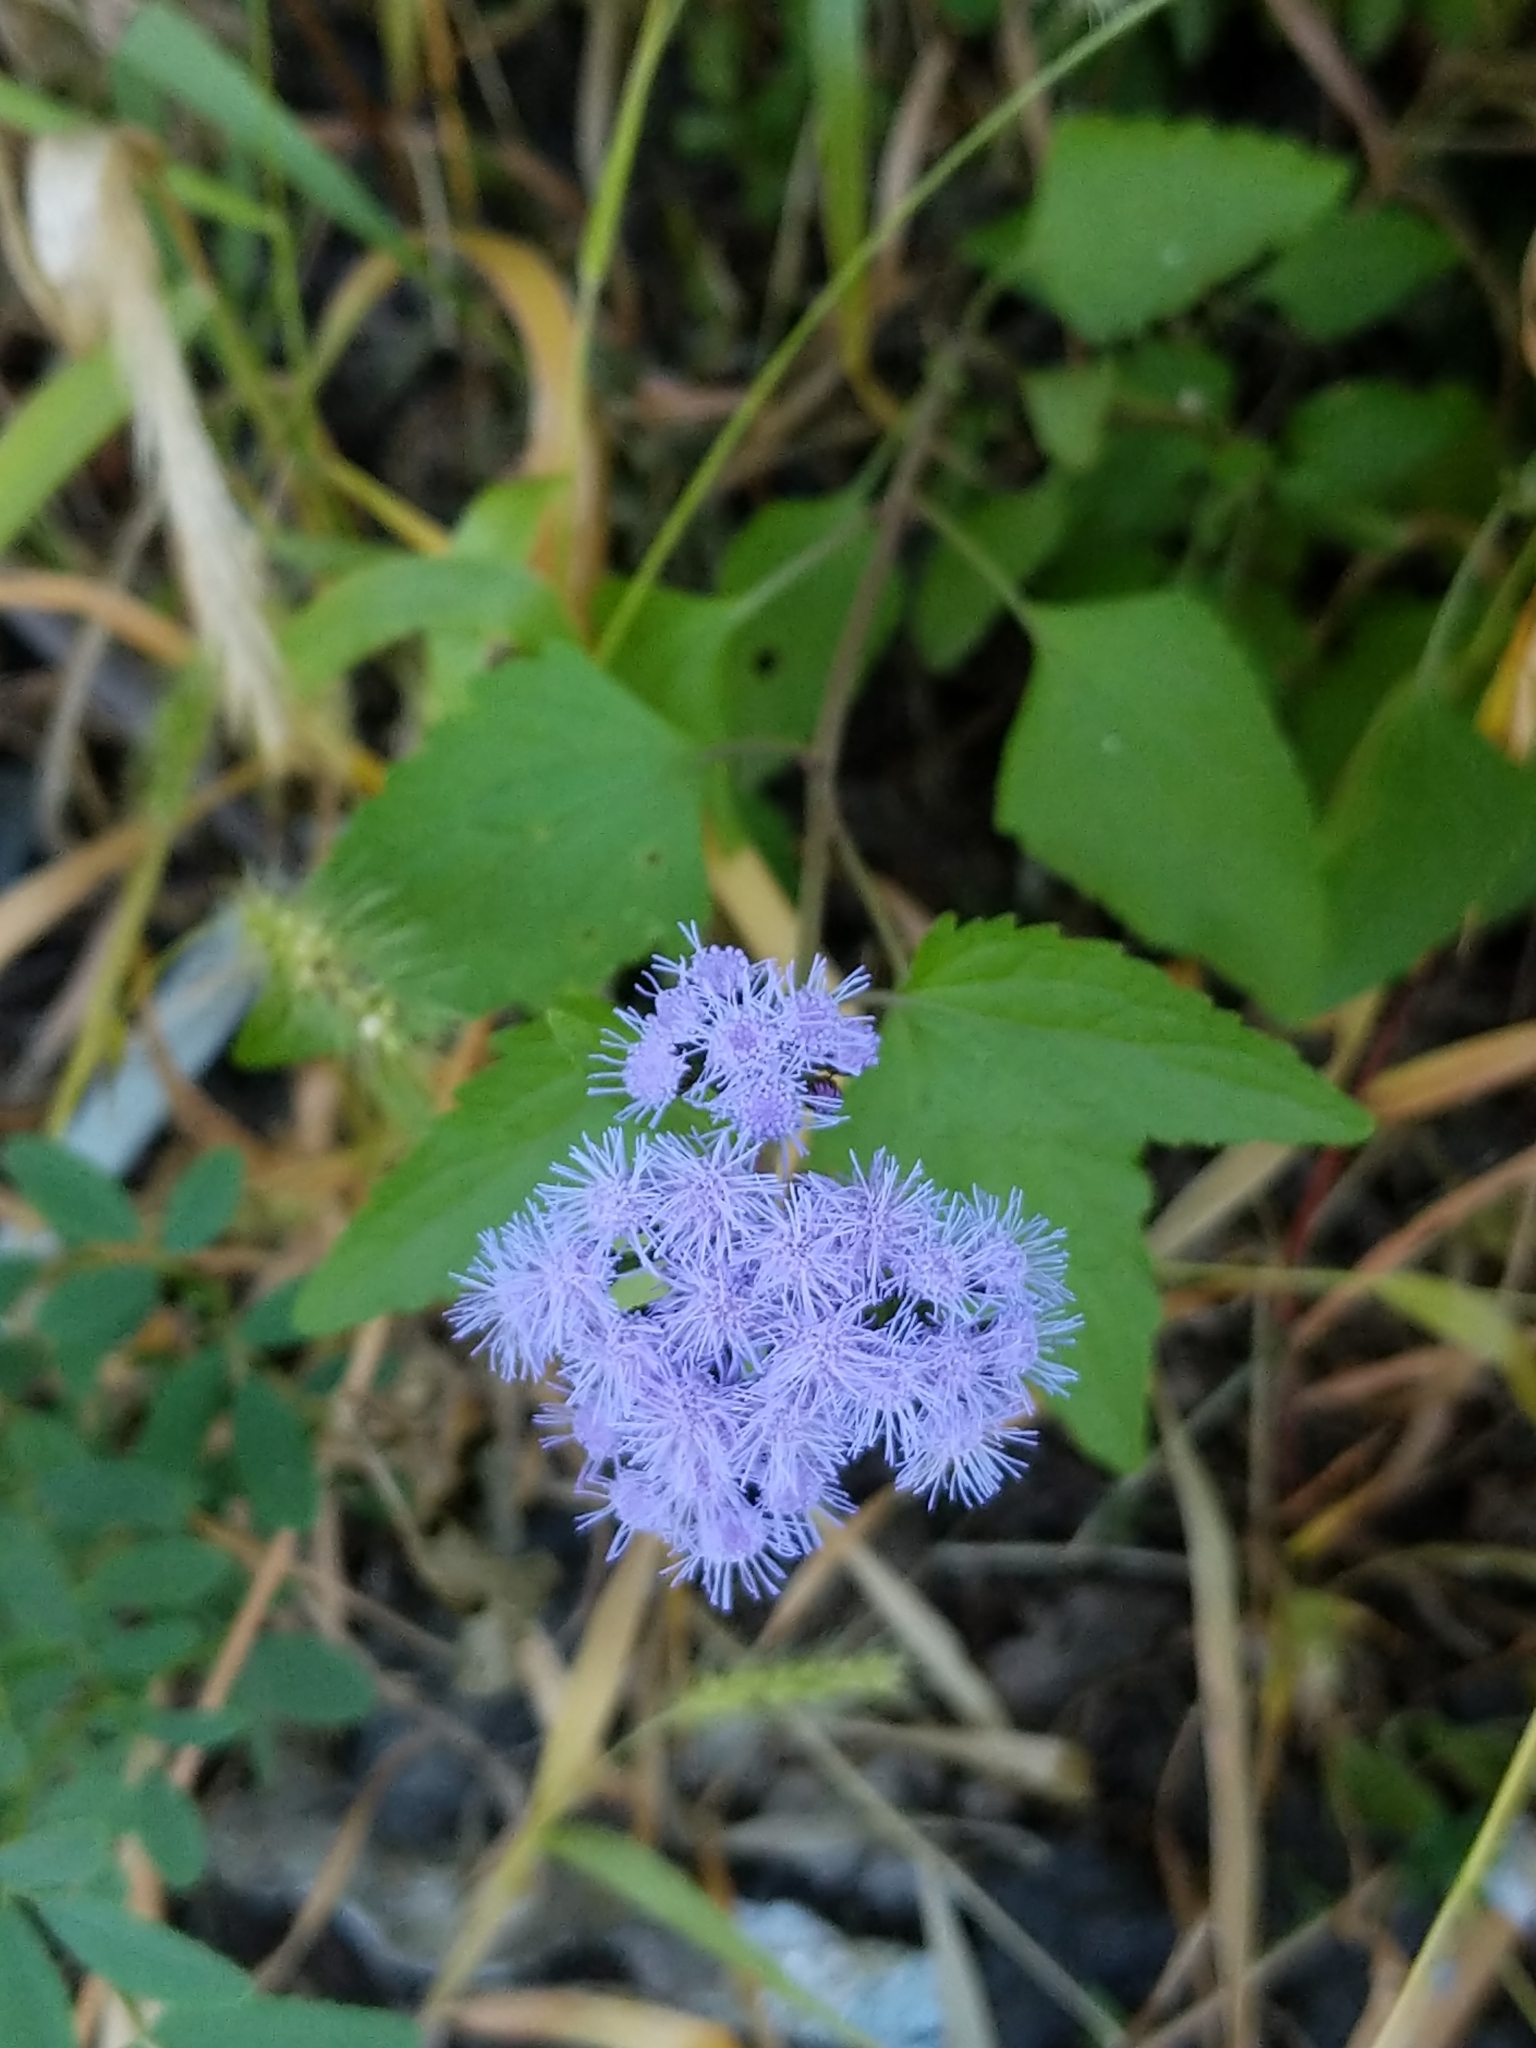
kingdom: Plantae
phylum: Tracheophyta
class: Magnoliopsida
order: Asterales
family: Asteraceae
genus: Conoclinium
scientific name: Conoclinium coelestinum
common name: Blue mistflower
